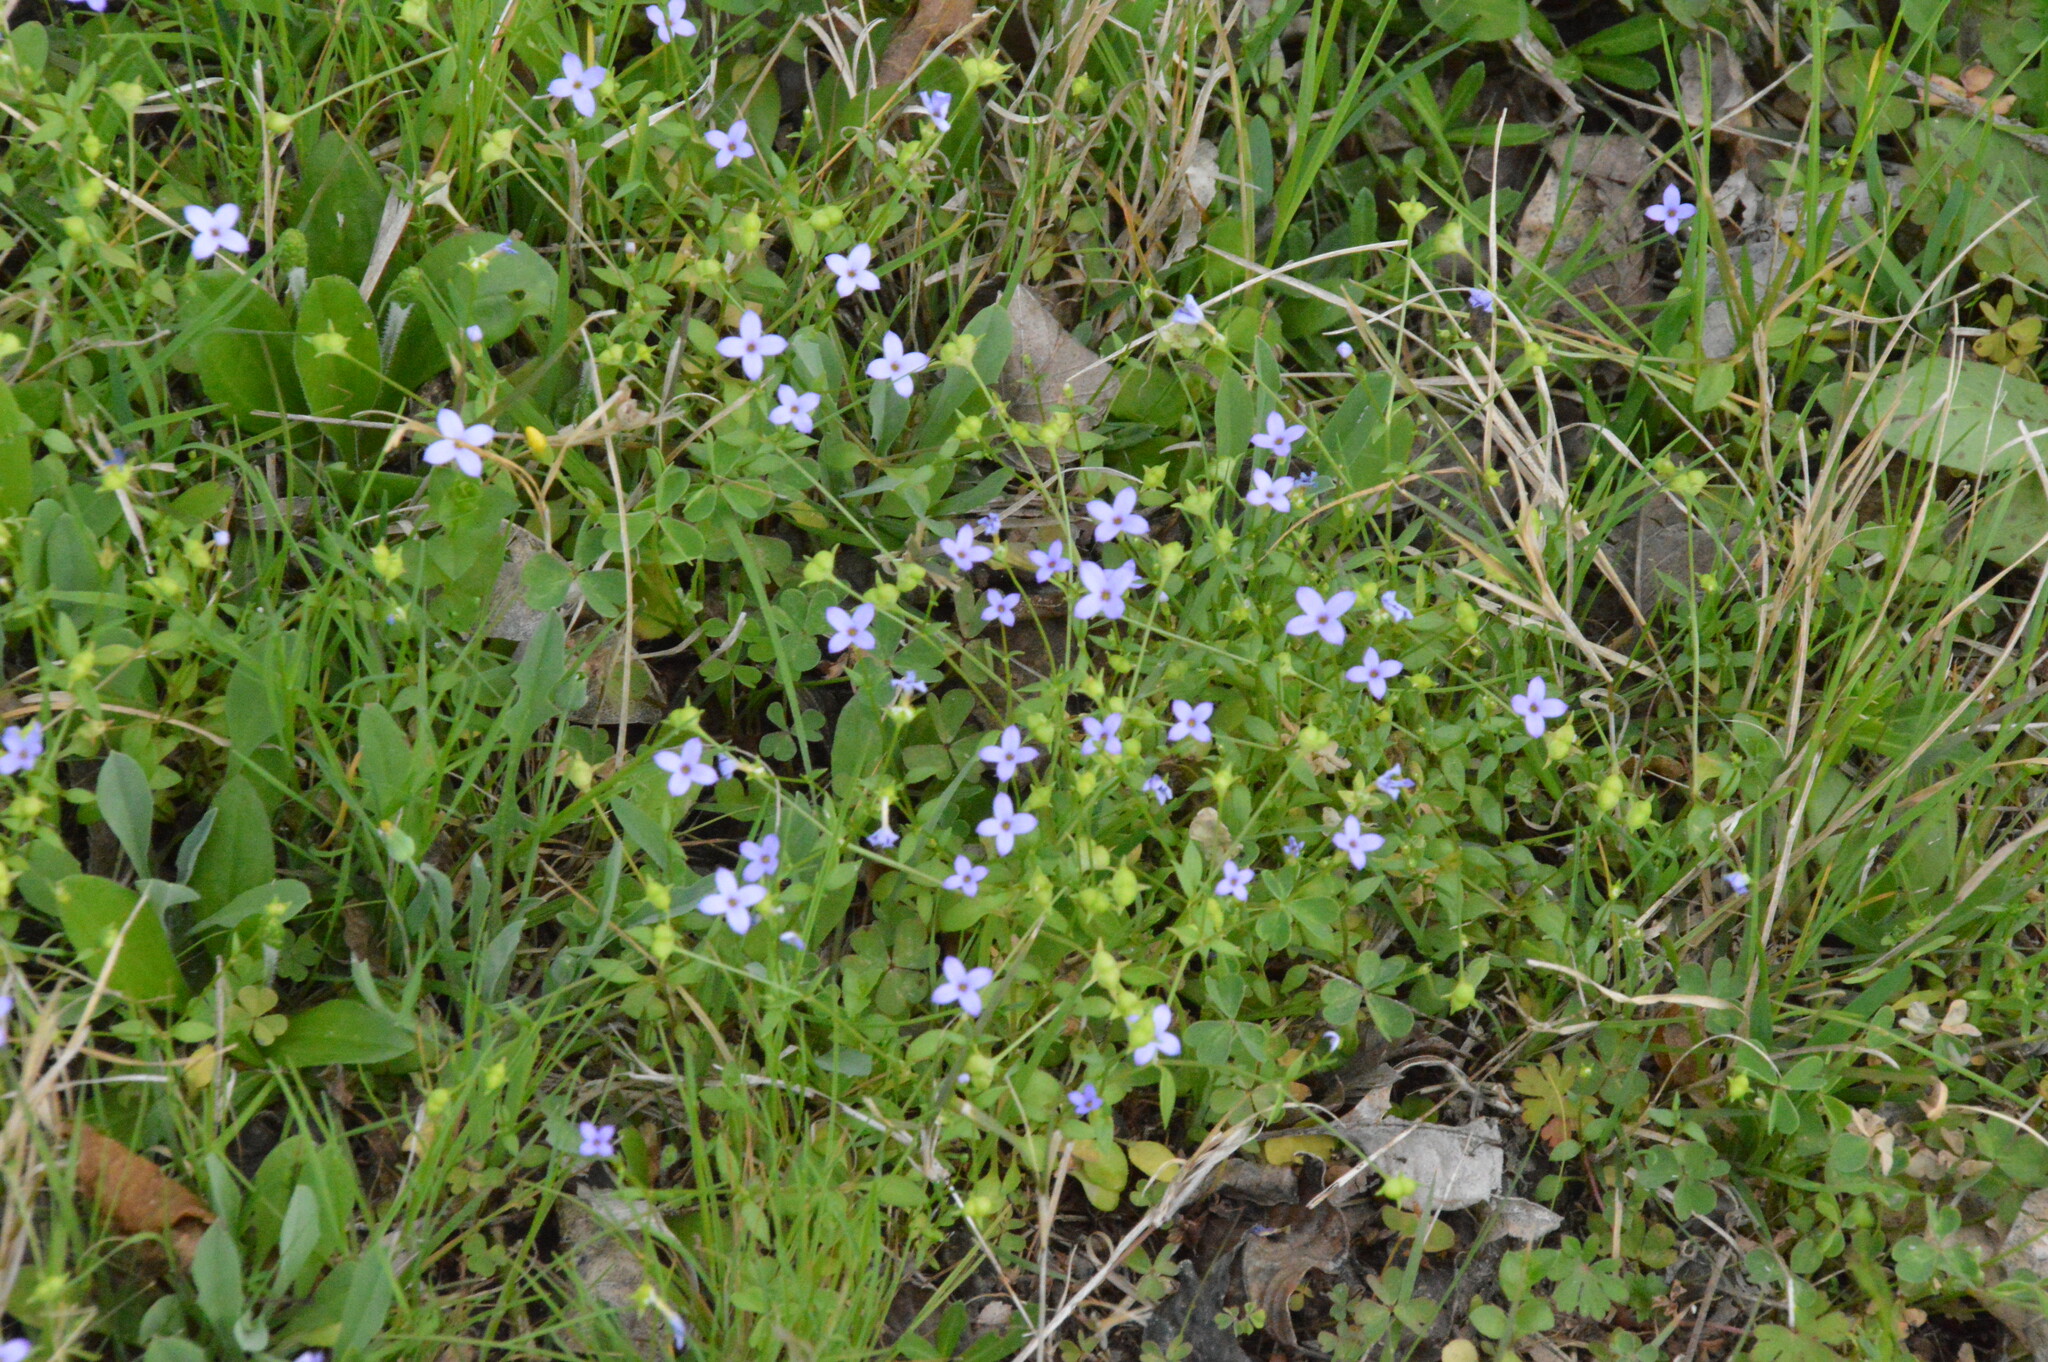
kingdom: Plantae
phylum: Tracheophyta
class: Magnoliopsida
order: Gentianales
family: Rubiaceae
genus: Houstonia
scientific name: Houstonia pusilla
